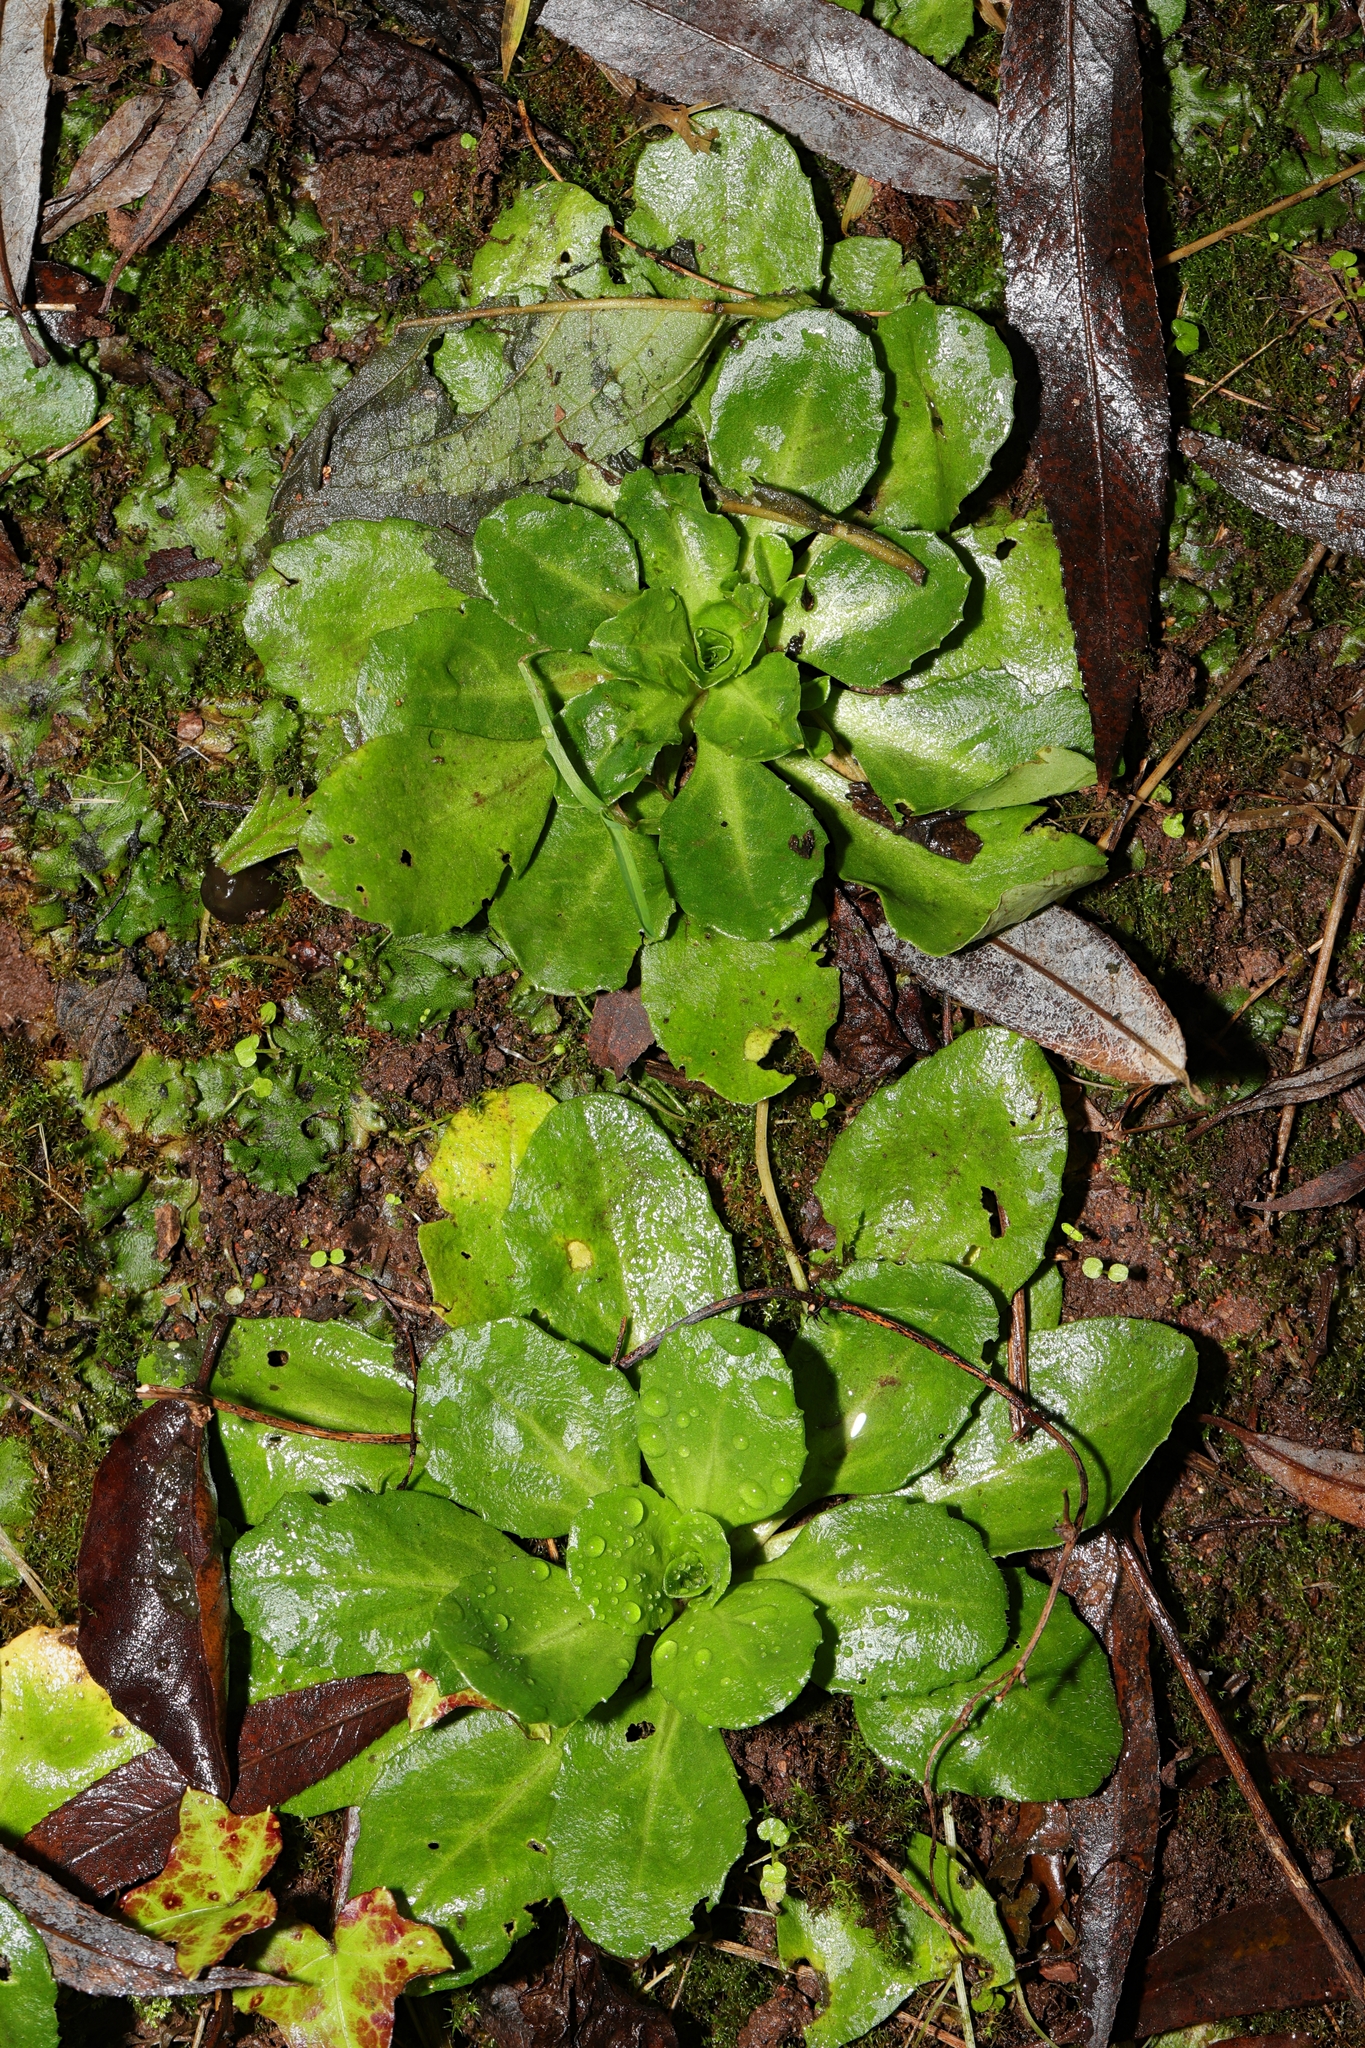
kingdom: Plantae
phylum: Tracheophyta
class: Magnoliopsida
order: Asterales
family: Asteraceae
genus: Bellis
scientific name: Bellis perennis
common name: Lawndaisy
